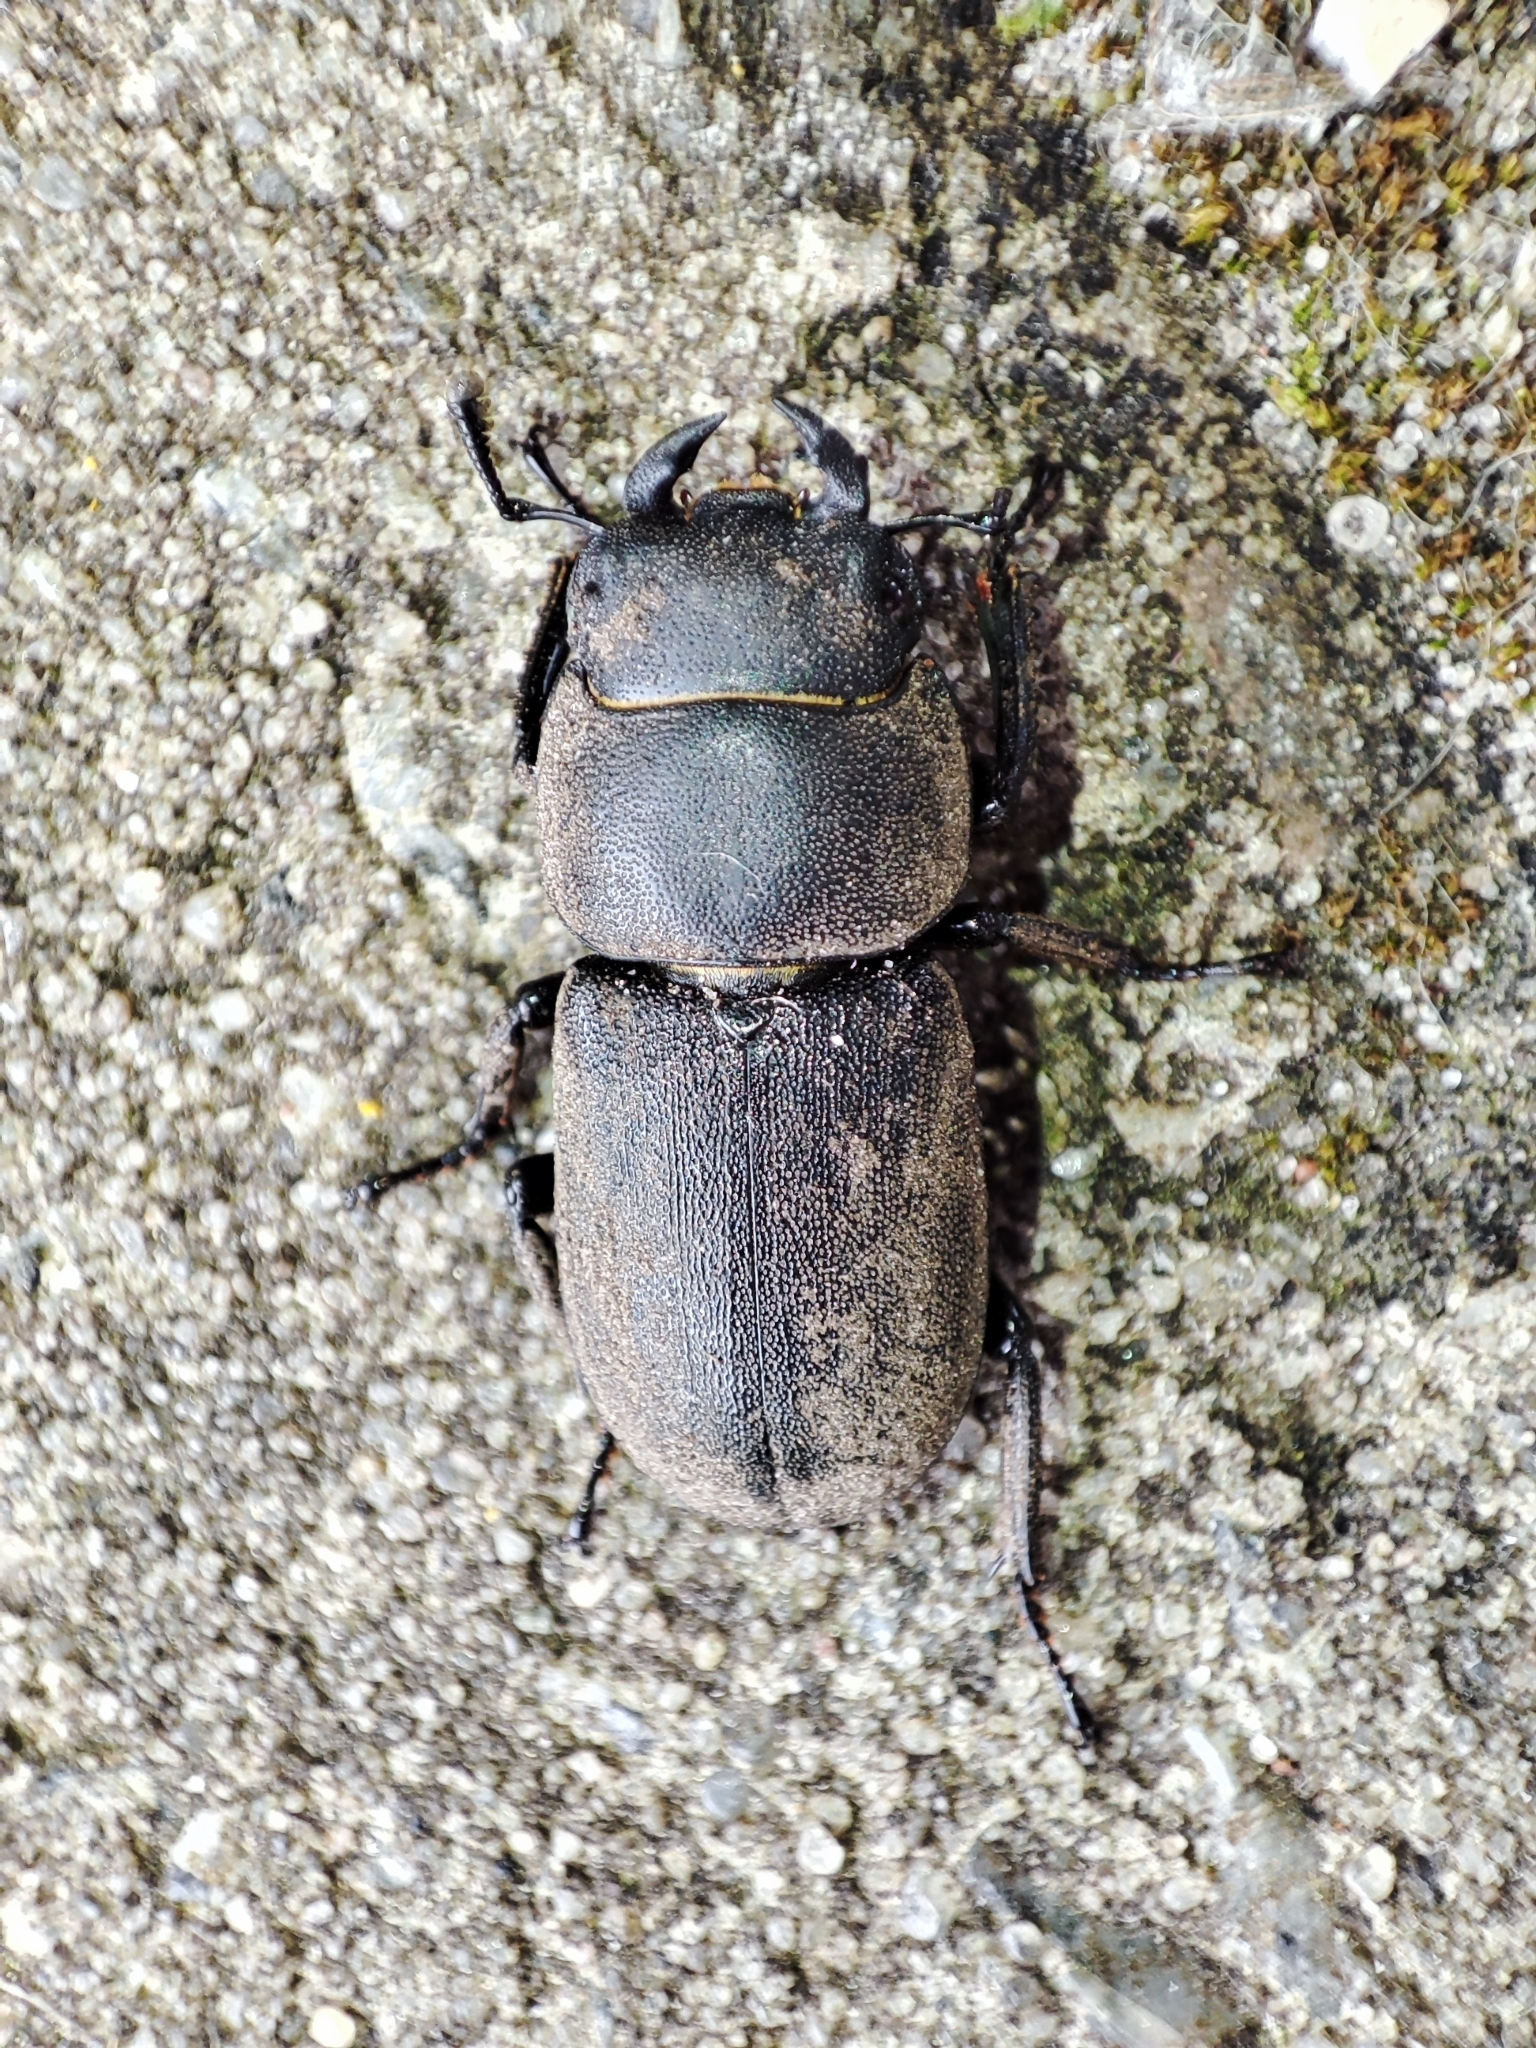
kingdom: Animalia
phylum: Arthropoda
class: Insecta
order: Coleoptera
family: Lucanidae
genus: Dorcus
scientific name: Dorcus parallelipipedus
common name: Lesser stag beetle
